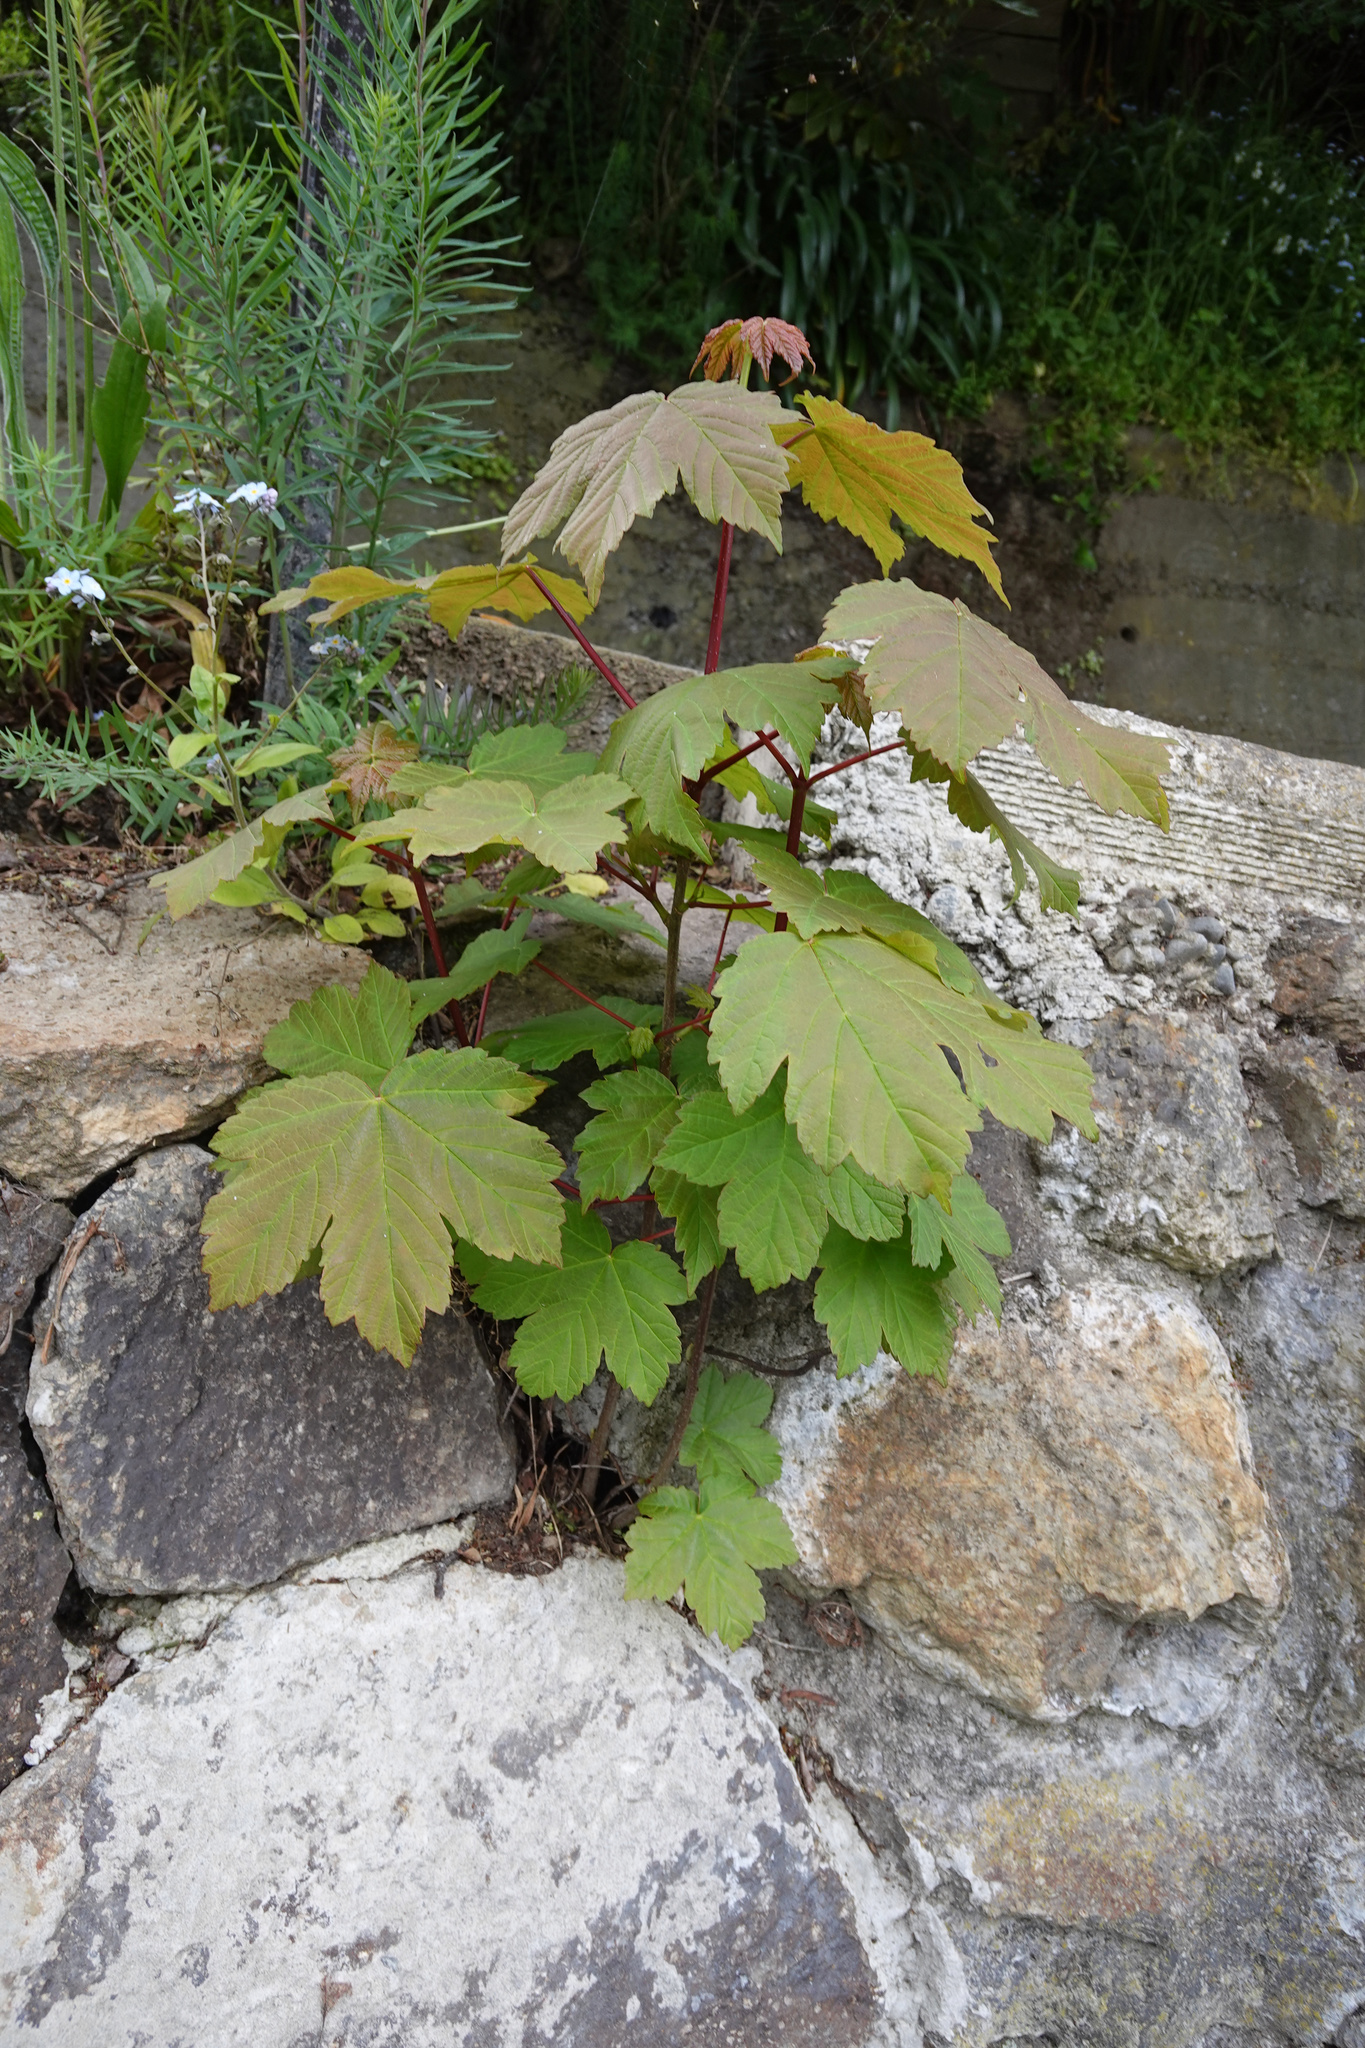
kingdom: Plantae
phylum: Tracheophyta
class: Magnoliopsida
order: Sapindales
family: Sapindaceae
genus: Acer
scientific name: Acer pseudoplatanus
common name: Sycamore
